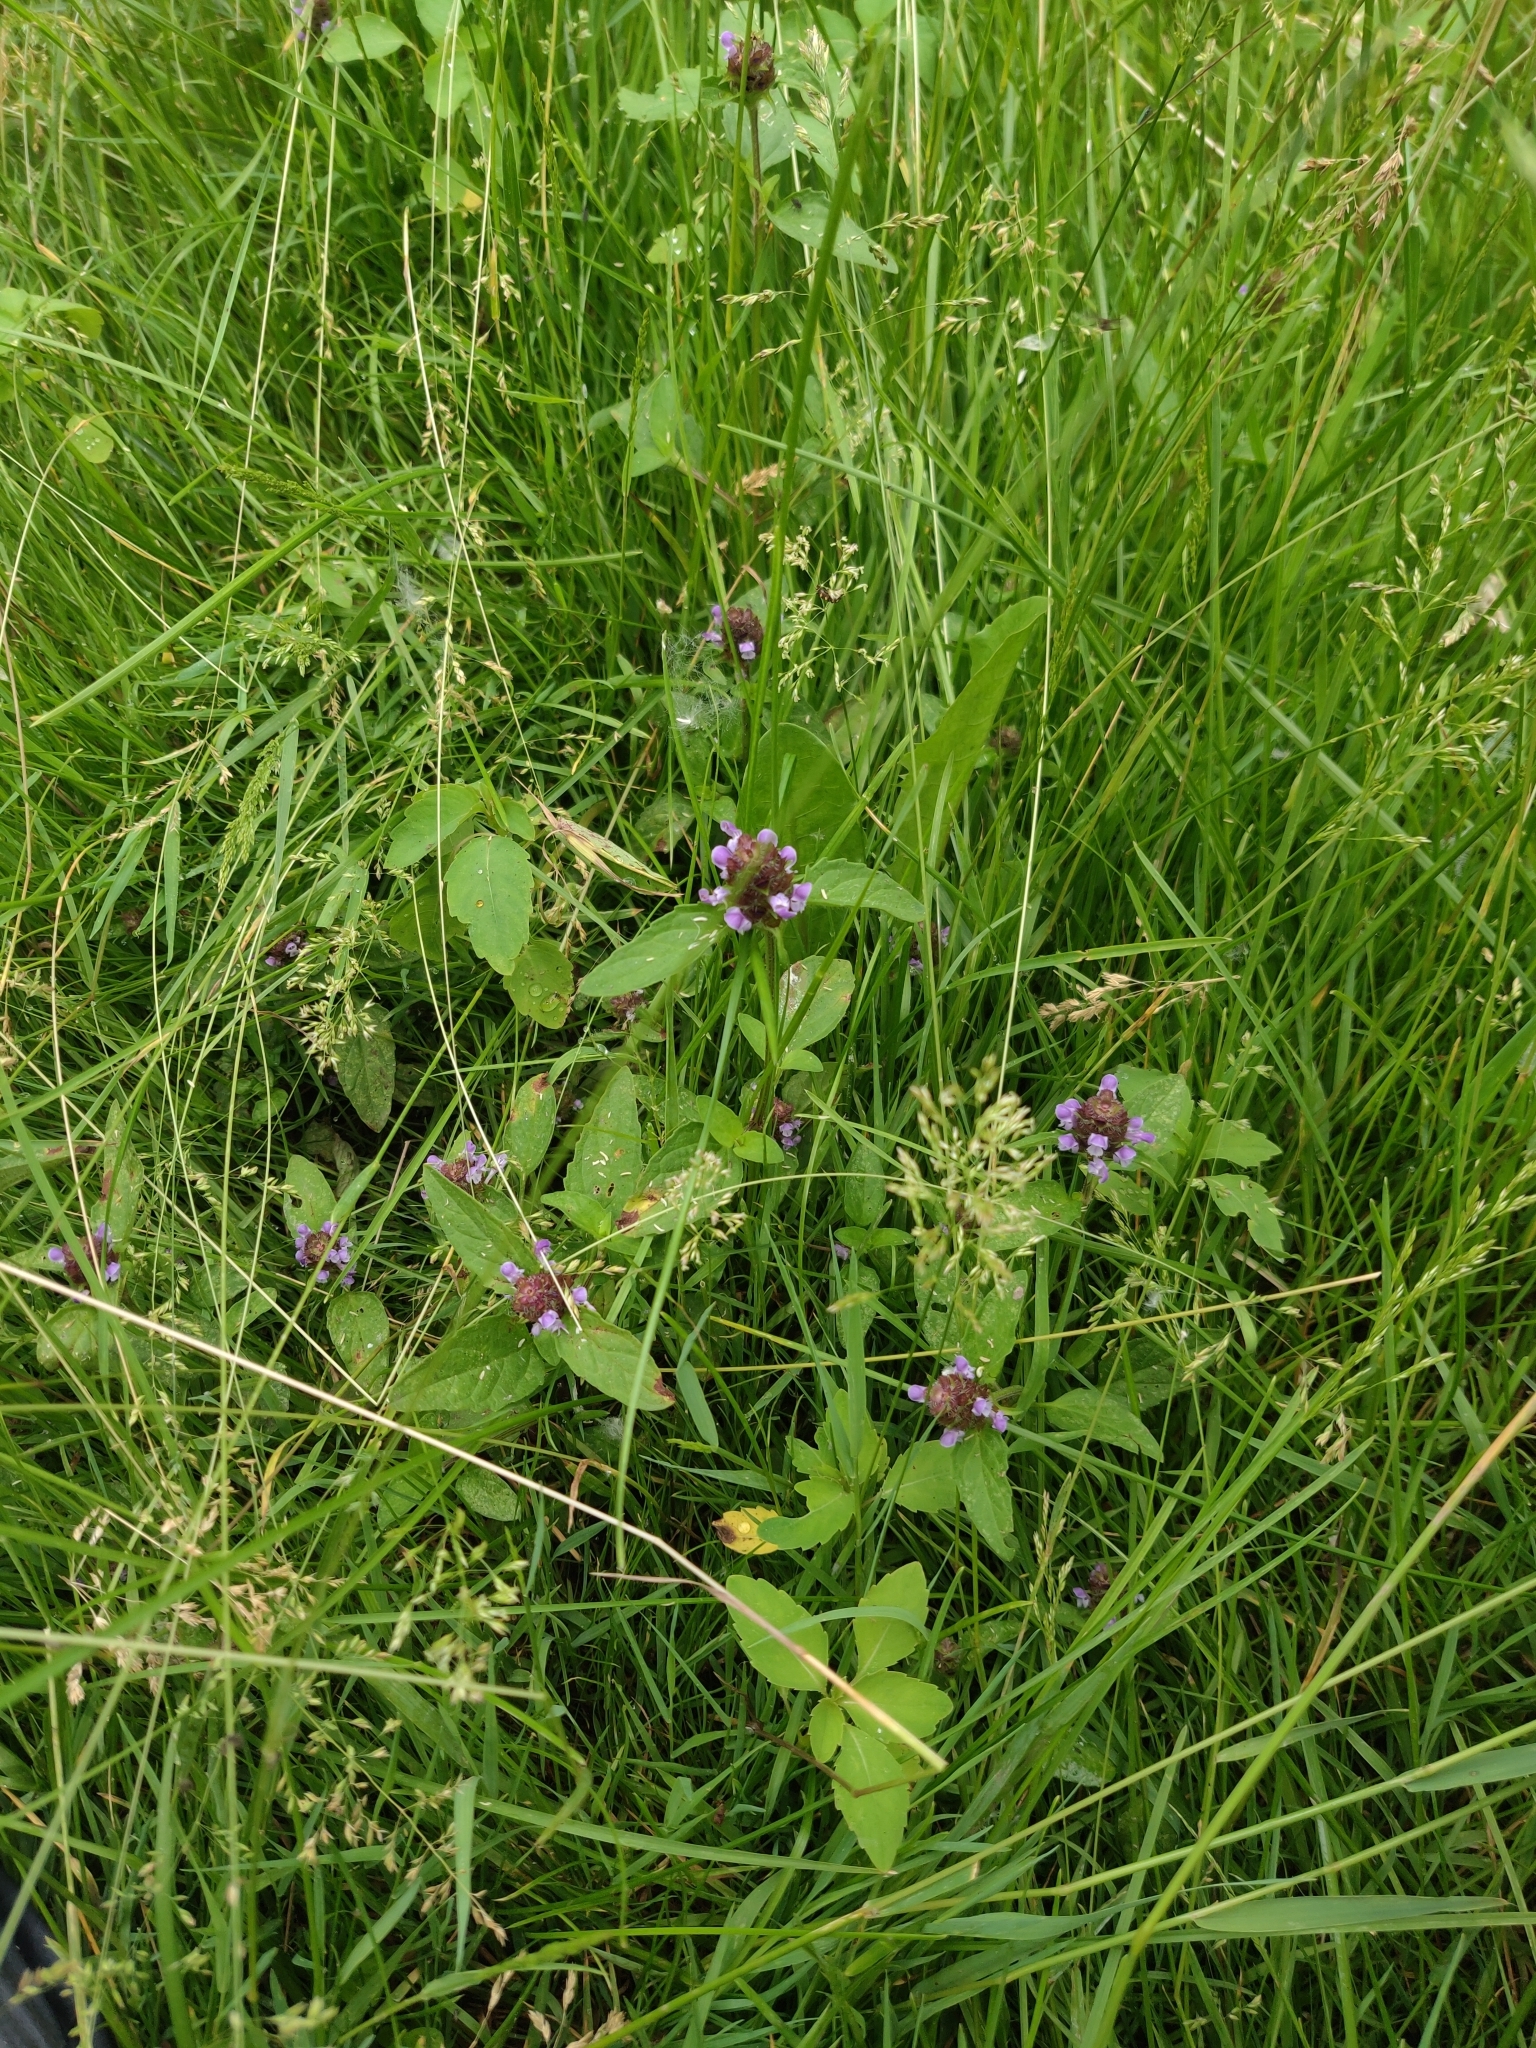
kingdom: Plantae
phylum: Tracheophyta
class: Magnoliopsida
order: Lamiales
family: Lamiaceae
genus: Prunella
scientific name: Prunella vulgaris
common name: Heal-all
